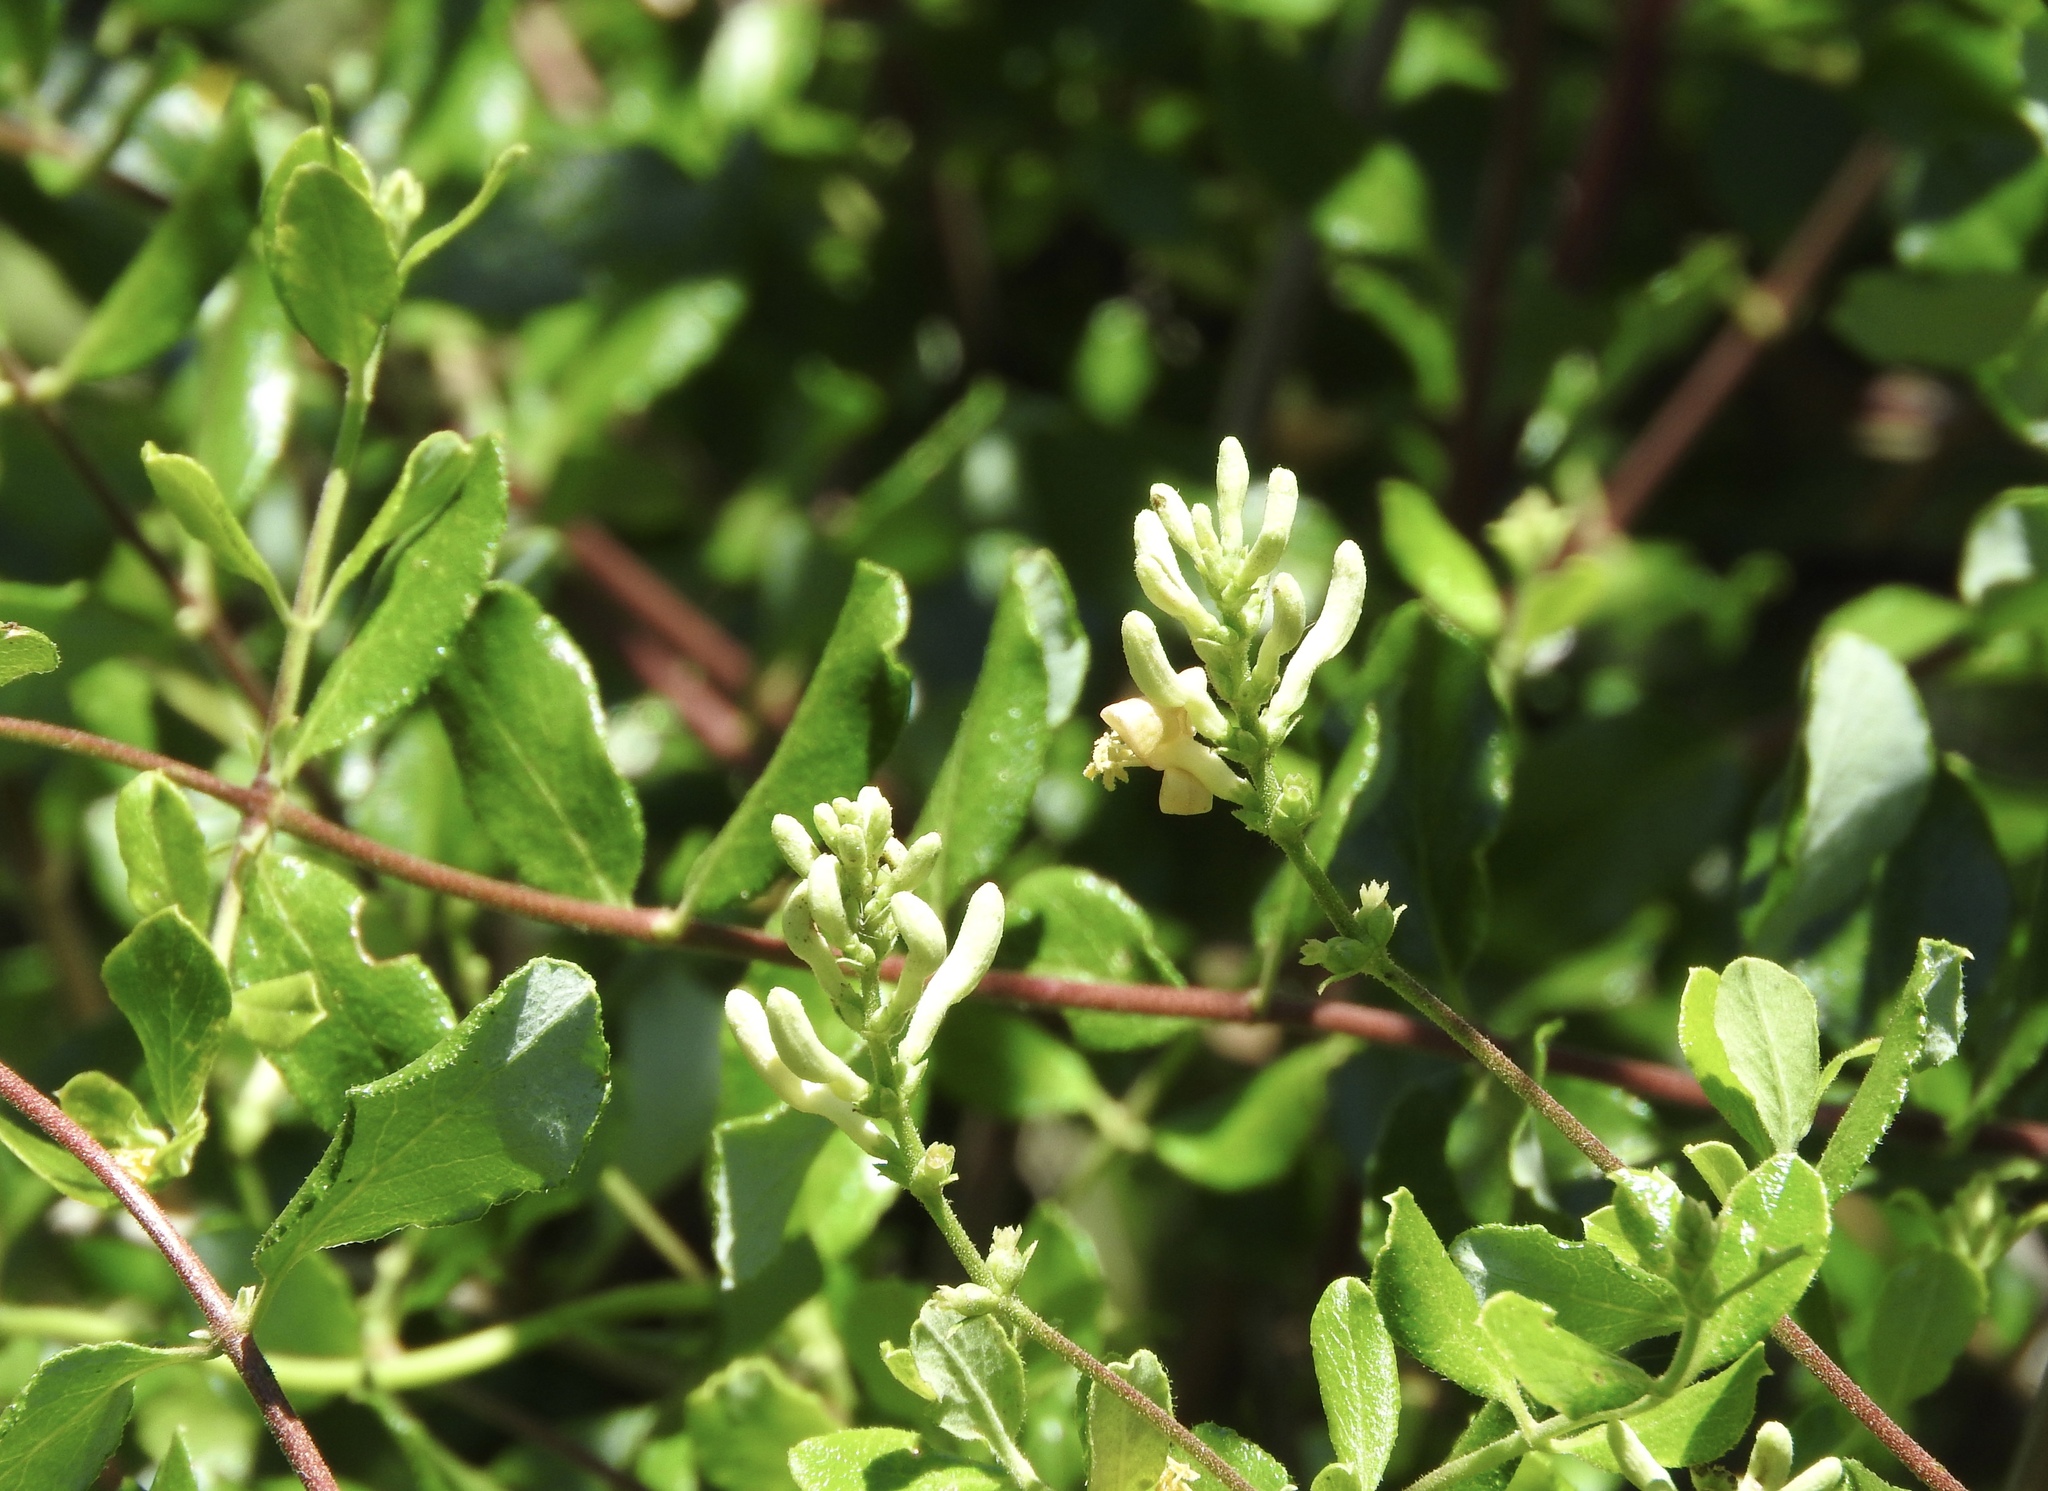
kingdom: Plantae
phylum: Tracheophyta
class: Magnoliopsida
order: Dipsacales
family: Caprifoliaceae
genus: Lonicera
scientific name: Lonicera subspicata
